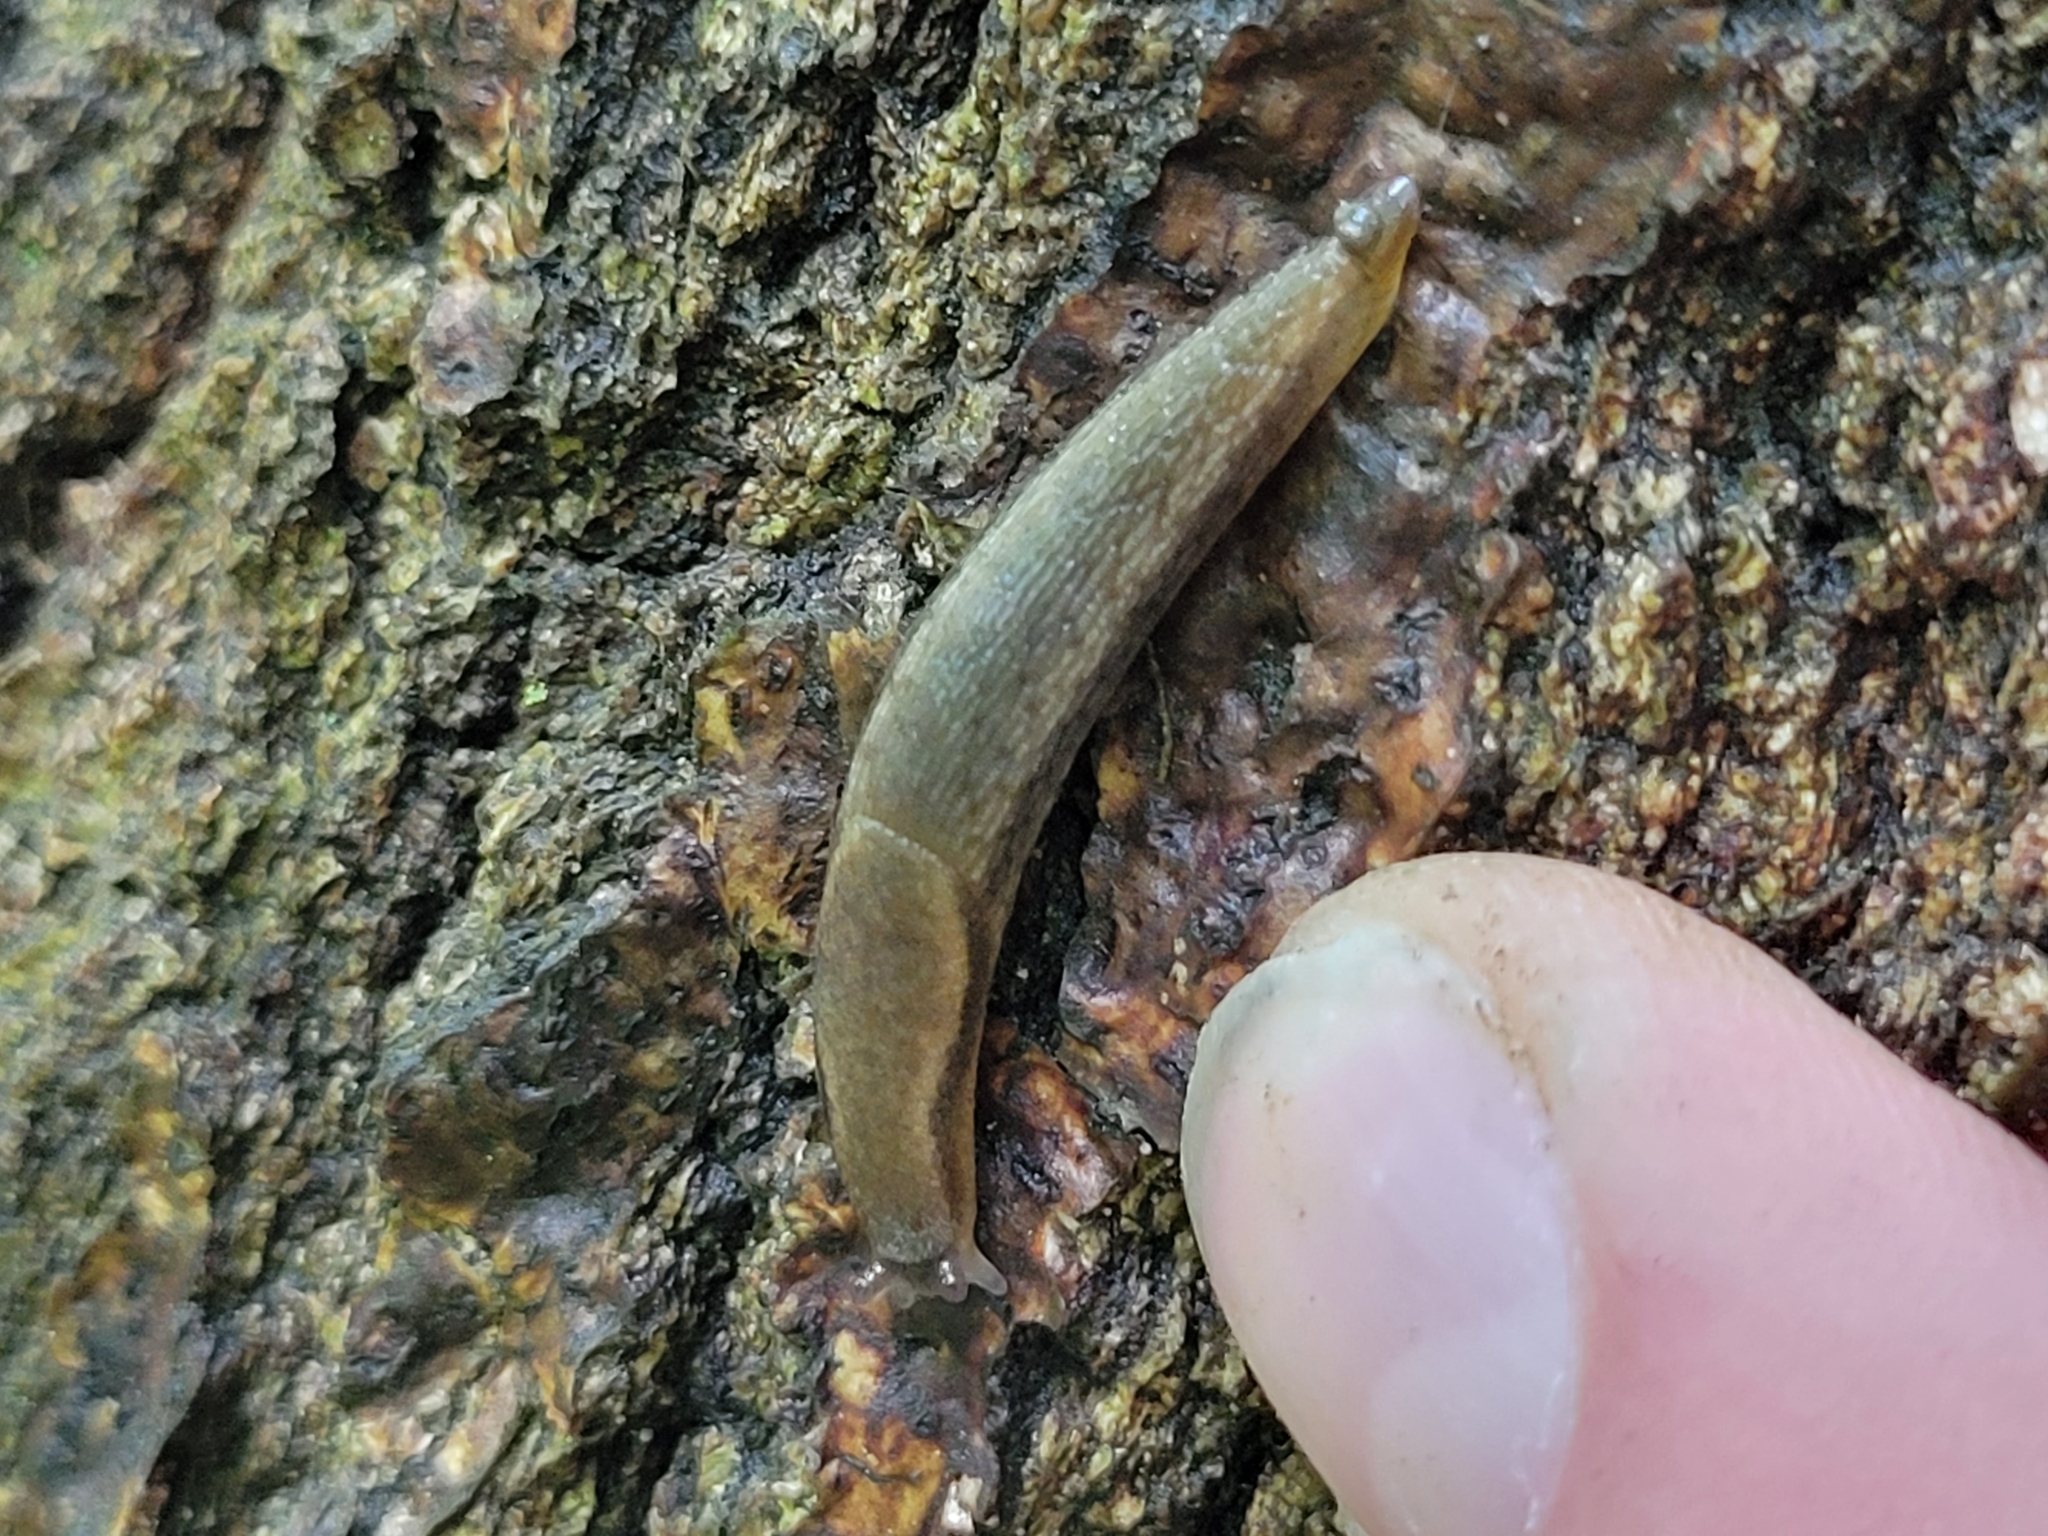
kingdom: Animalia
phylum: Mollusca
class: Gastropoda
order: Stylommatophora
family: Arionidae
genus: Arion
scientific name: Arion hortensis
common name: Garden arion
